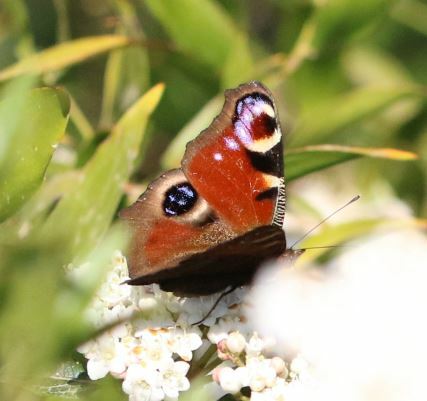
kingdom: Animalia
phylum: Arthropoda
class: Insecta
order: Lepidoptera
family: Nymphalidae
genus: Aglais
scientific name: Aglais io
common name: Peacock
